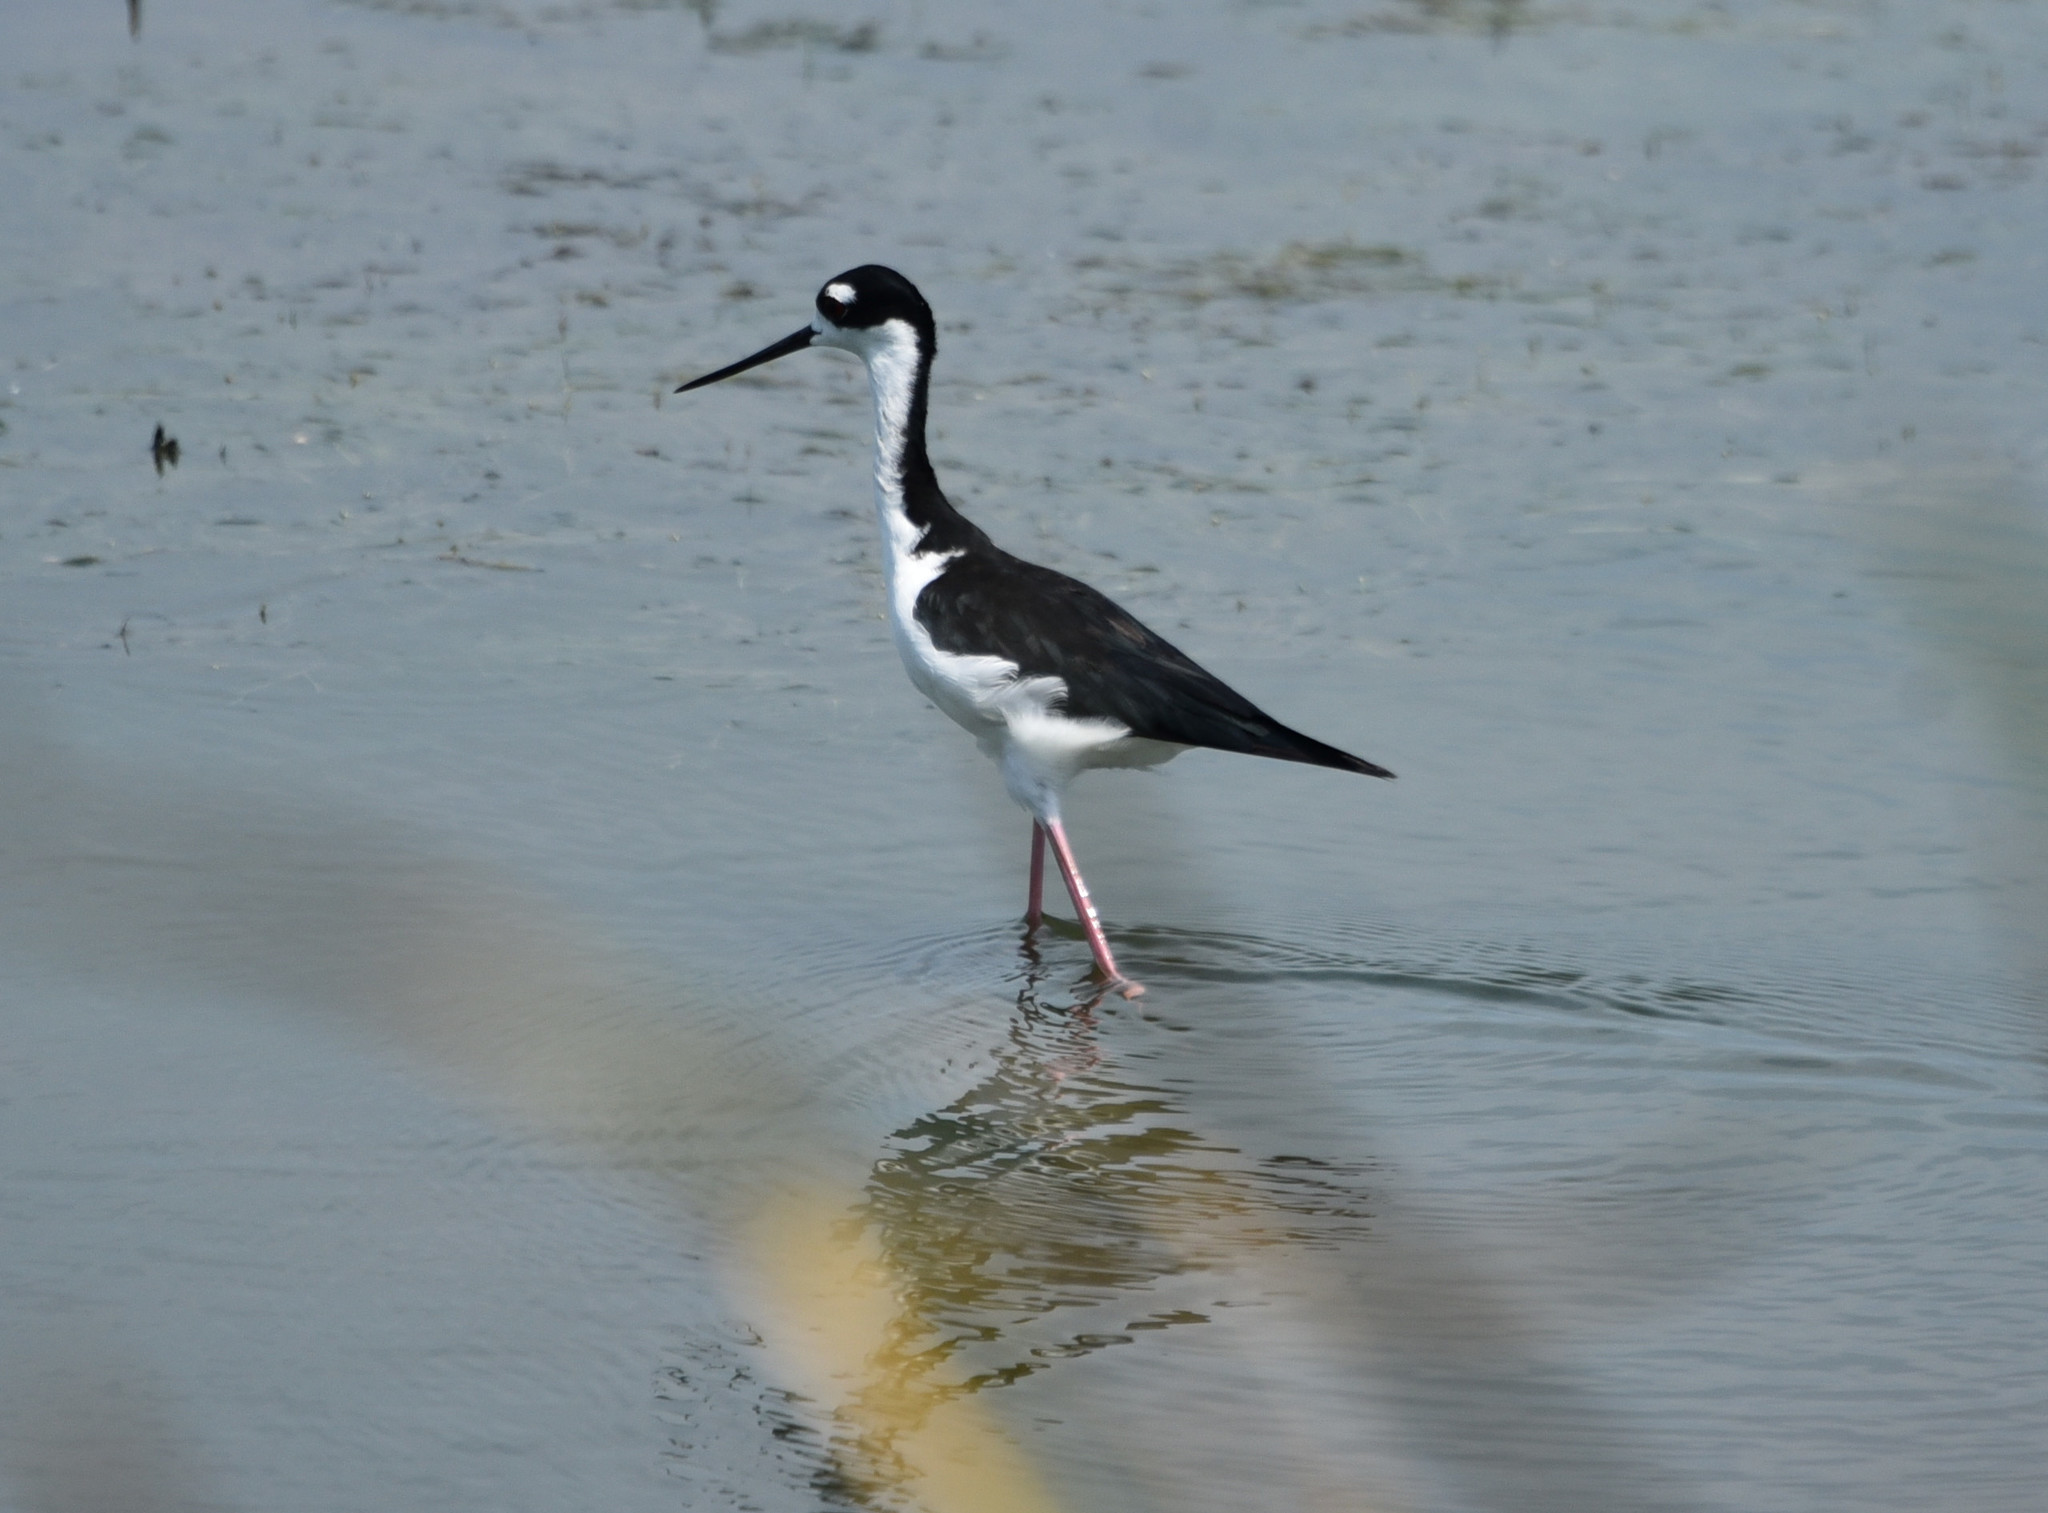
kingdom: Animalia
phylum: Chordata
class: Aves
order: Charadriiformes
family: Recurvirostridae
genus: Himantopus
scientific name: Himantopus mexicanus
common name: Black-necked stilt
